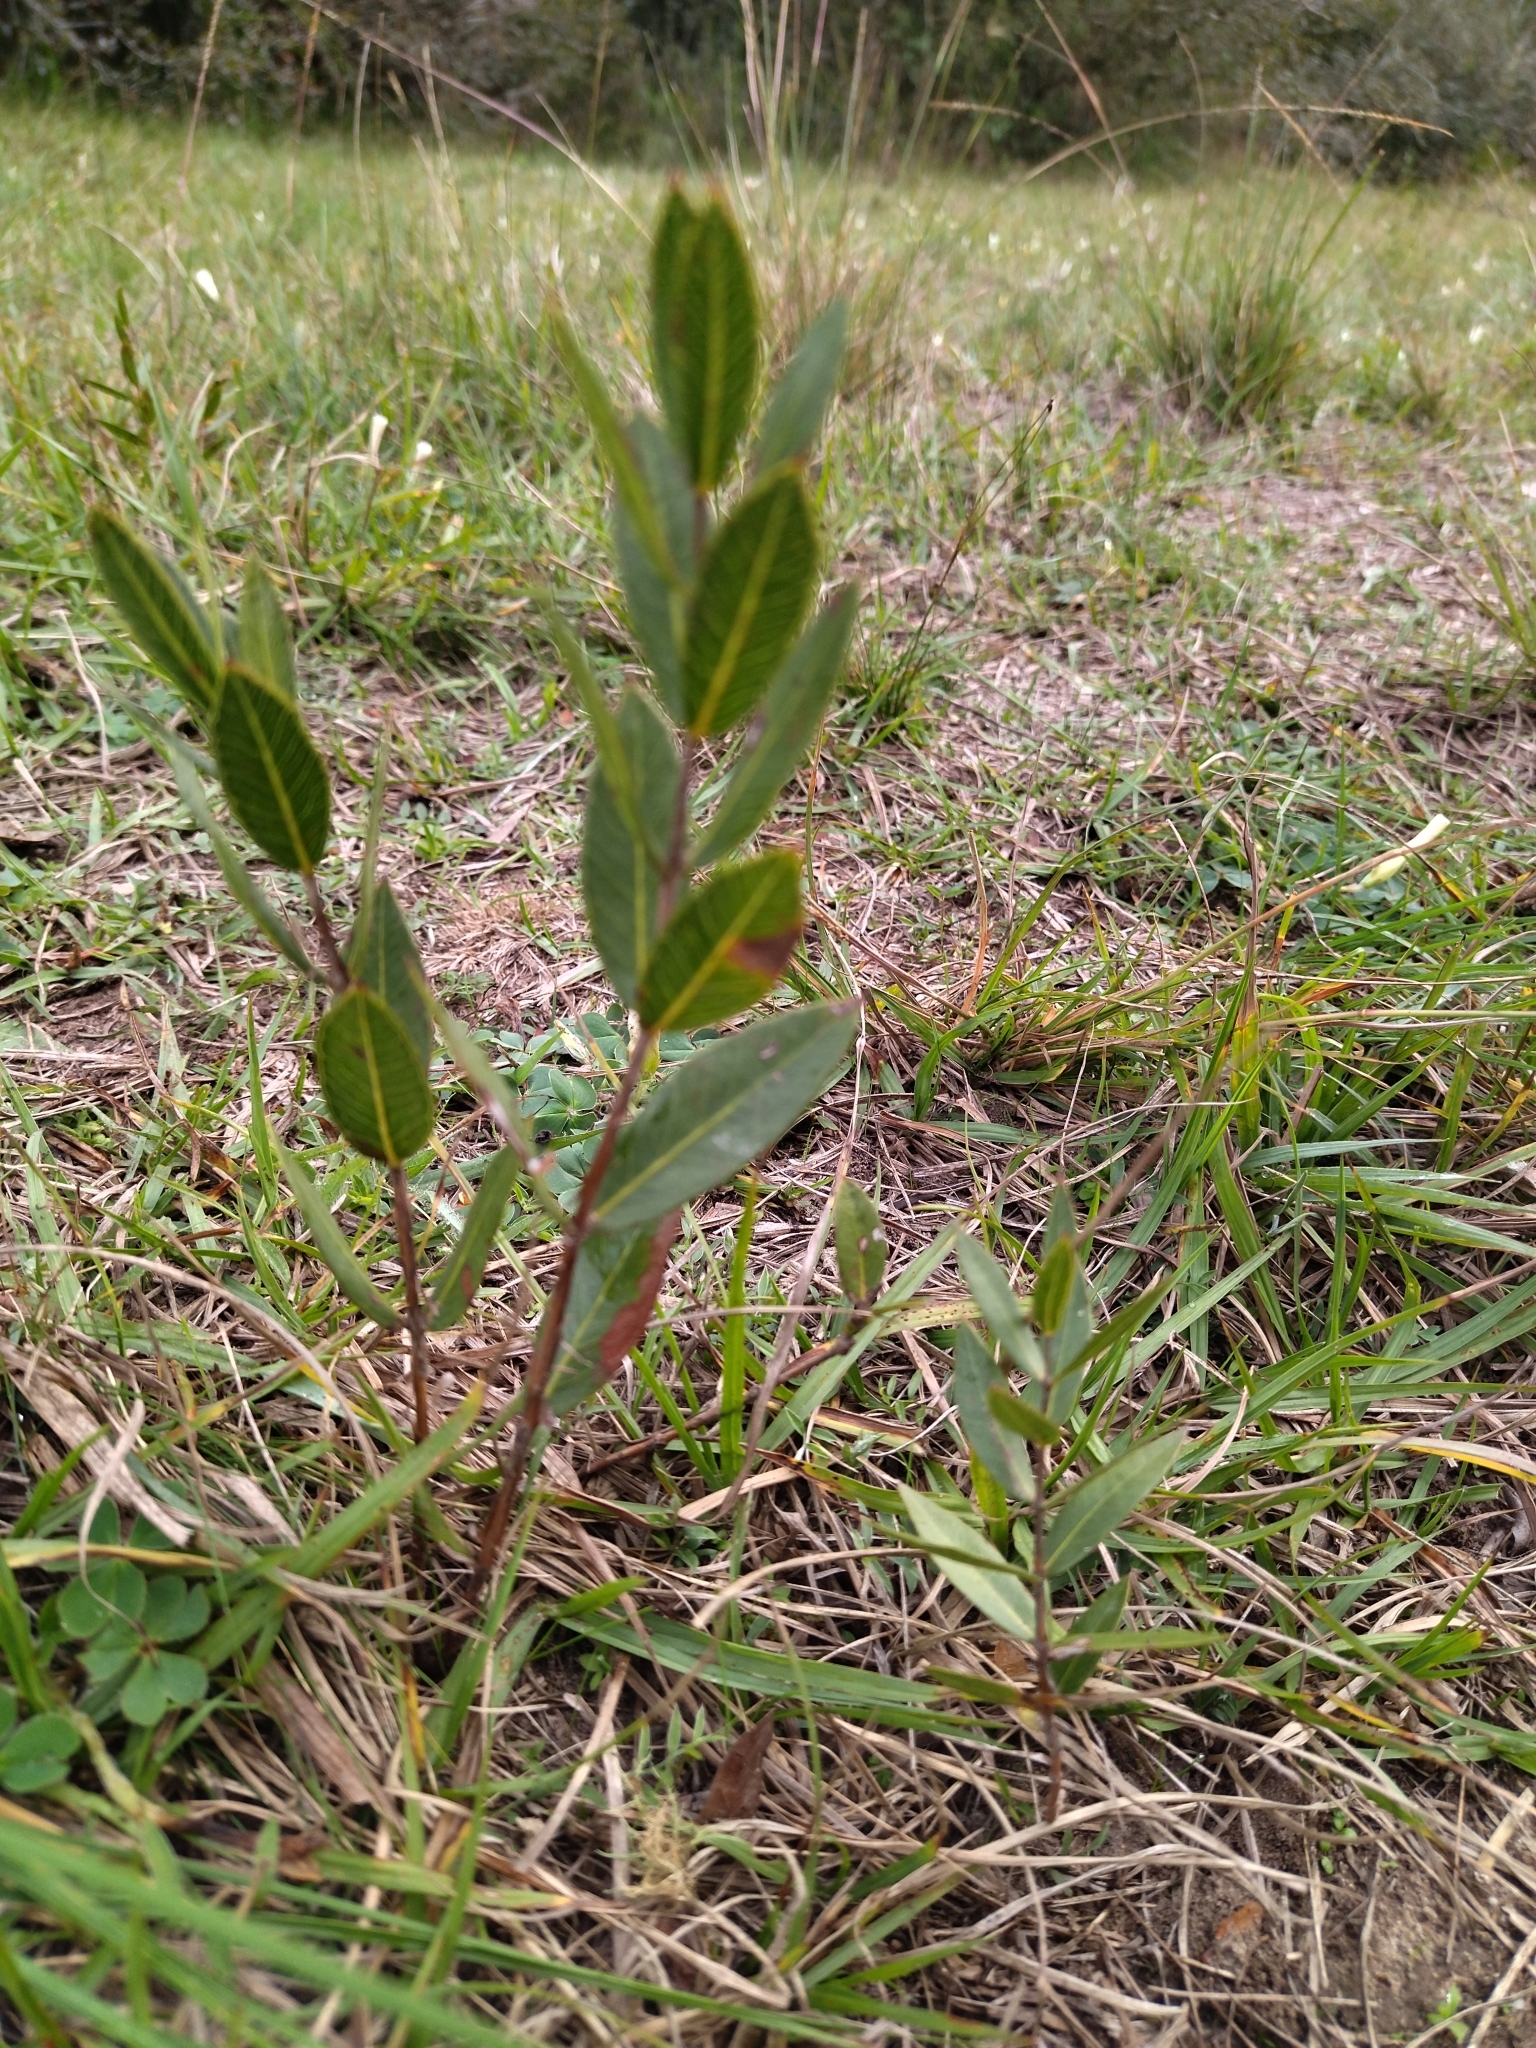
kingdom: Plantae
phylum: Tracheophyta
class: Magnoliopsida
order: Myrtales
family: Myrtaceae
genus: Psidium
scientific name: Psidium salutare
